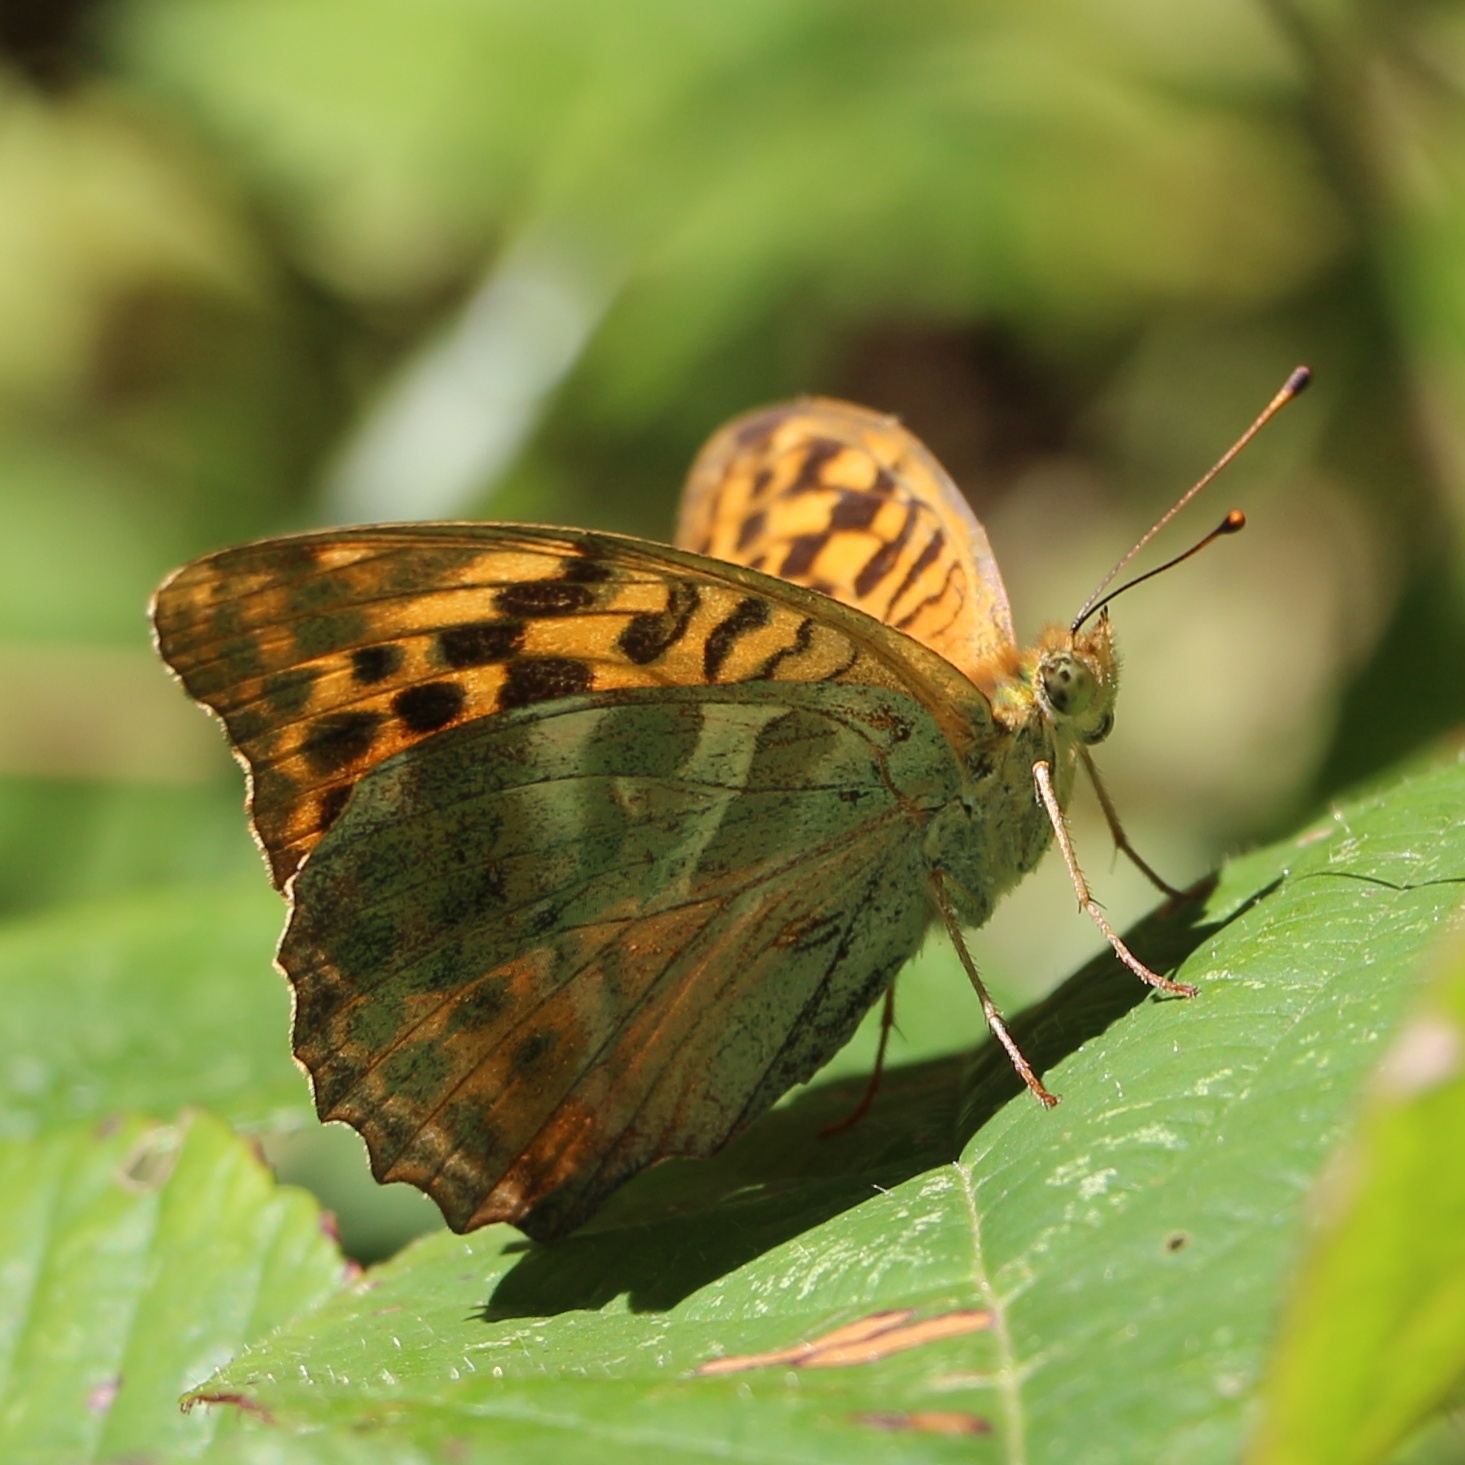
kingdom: Animalia
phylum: Arthropoda
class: Insecta
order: Lepidoptera
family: Nymphalidae
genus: Argynnis
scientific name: Argynnis paphia
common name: Silver-washed fritillary
